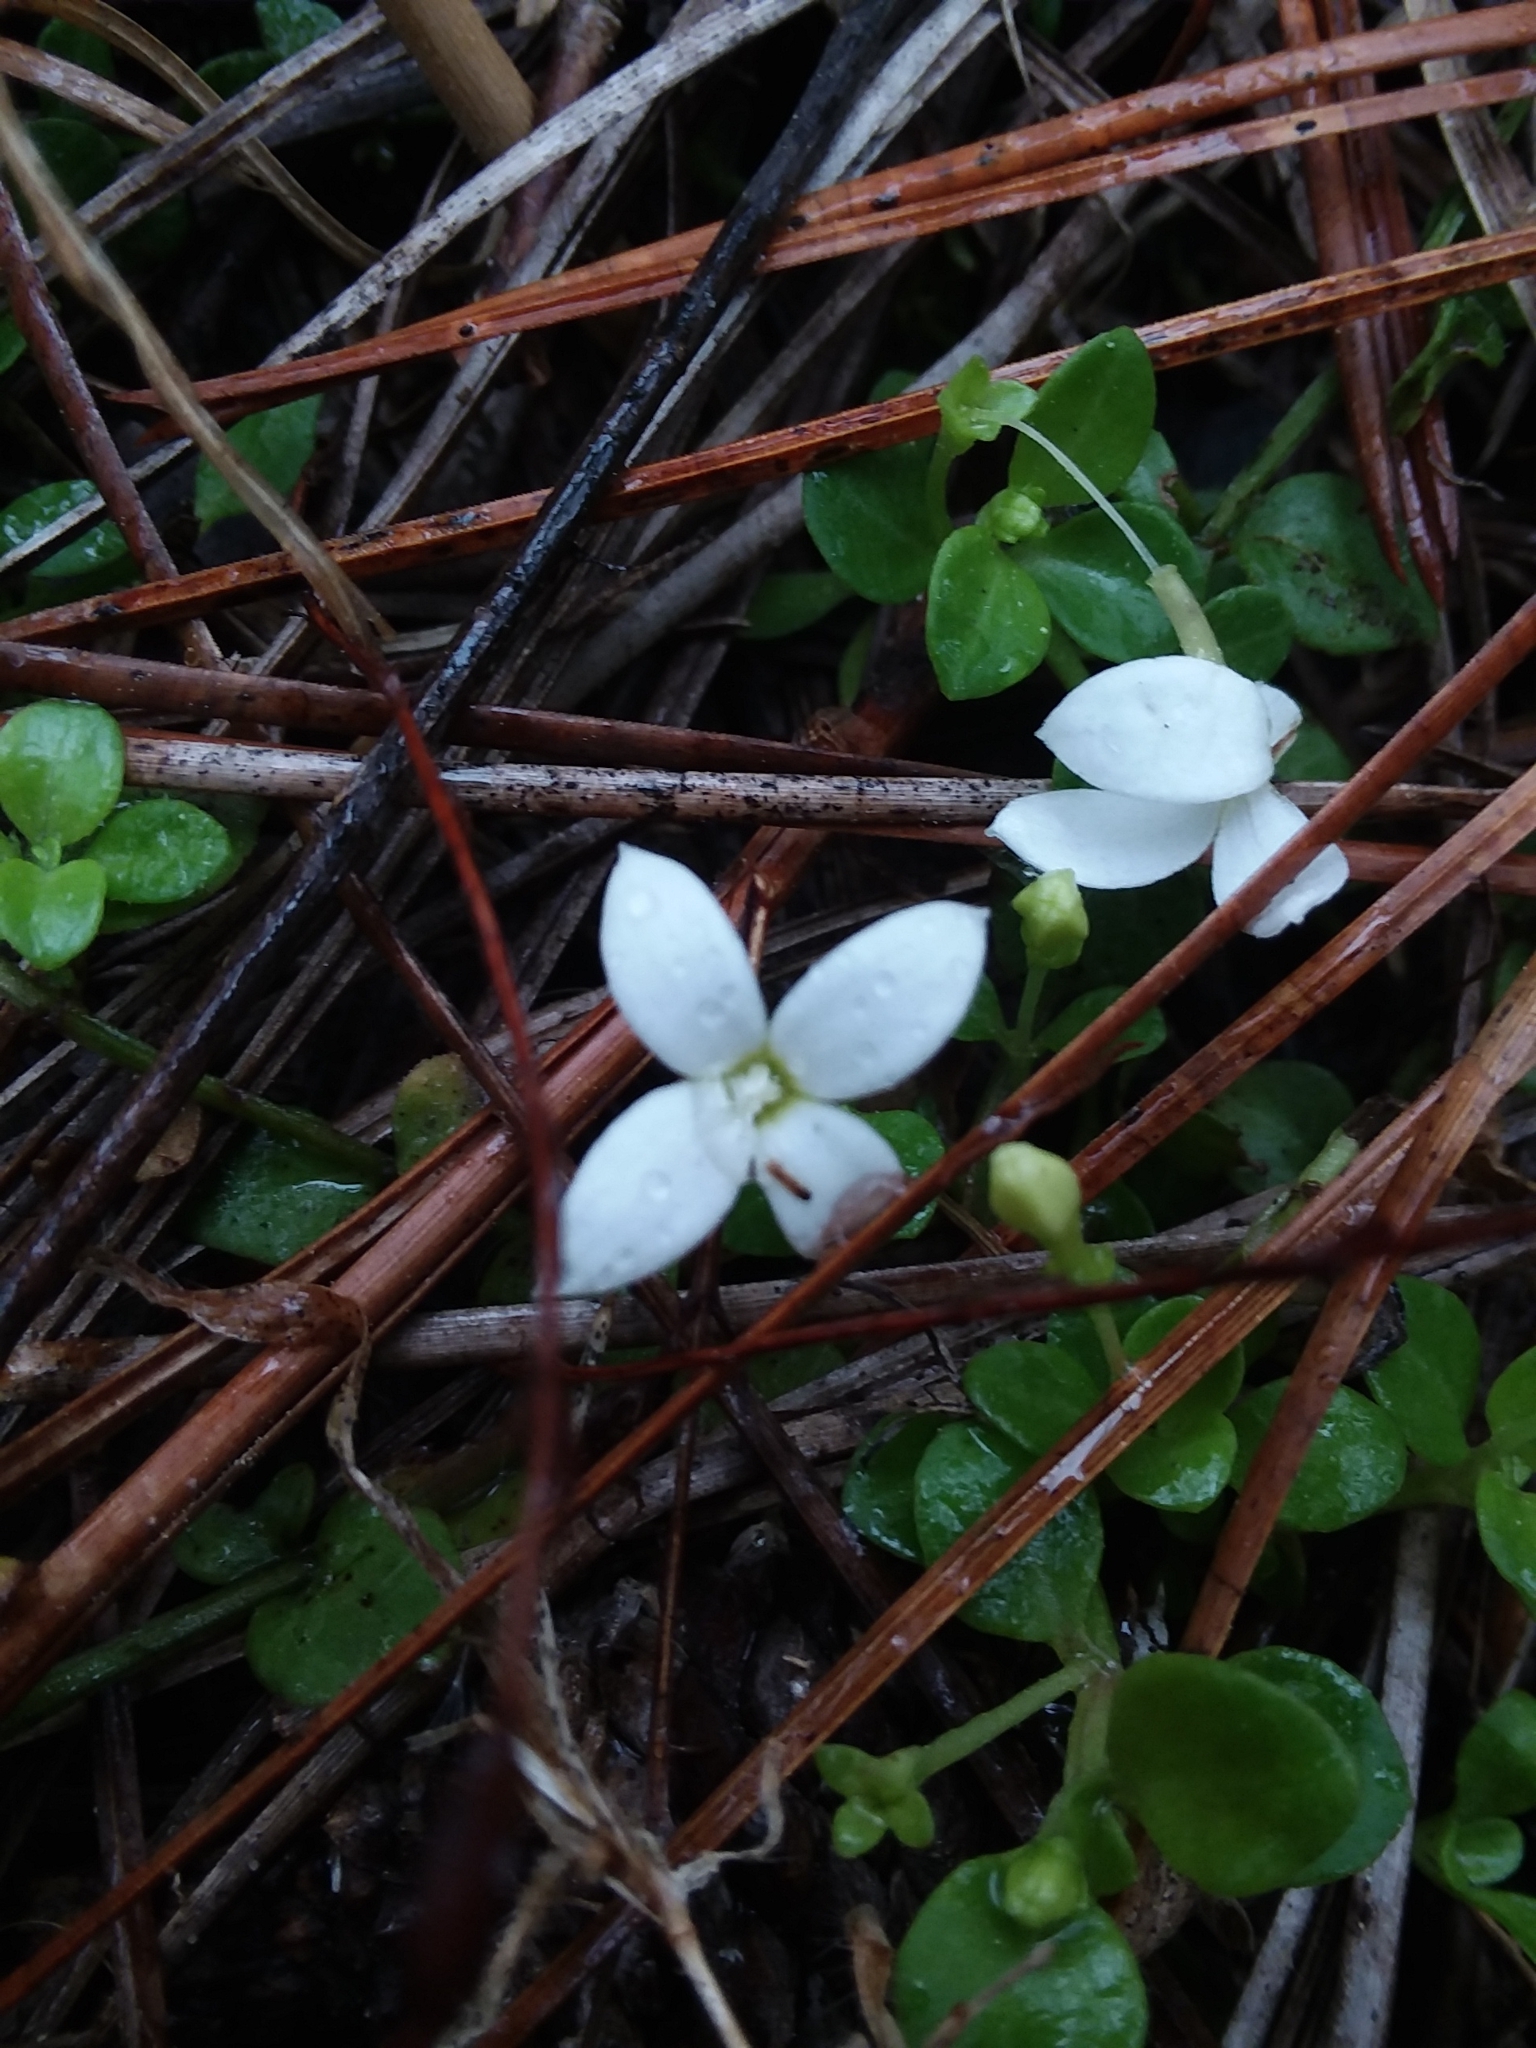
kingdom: Plantae
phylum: Tracheophyta
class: Magnoliopsida
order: Gentianales
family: Rubiaceae
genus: Houstonia
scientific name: Houstonia procumbens
